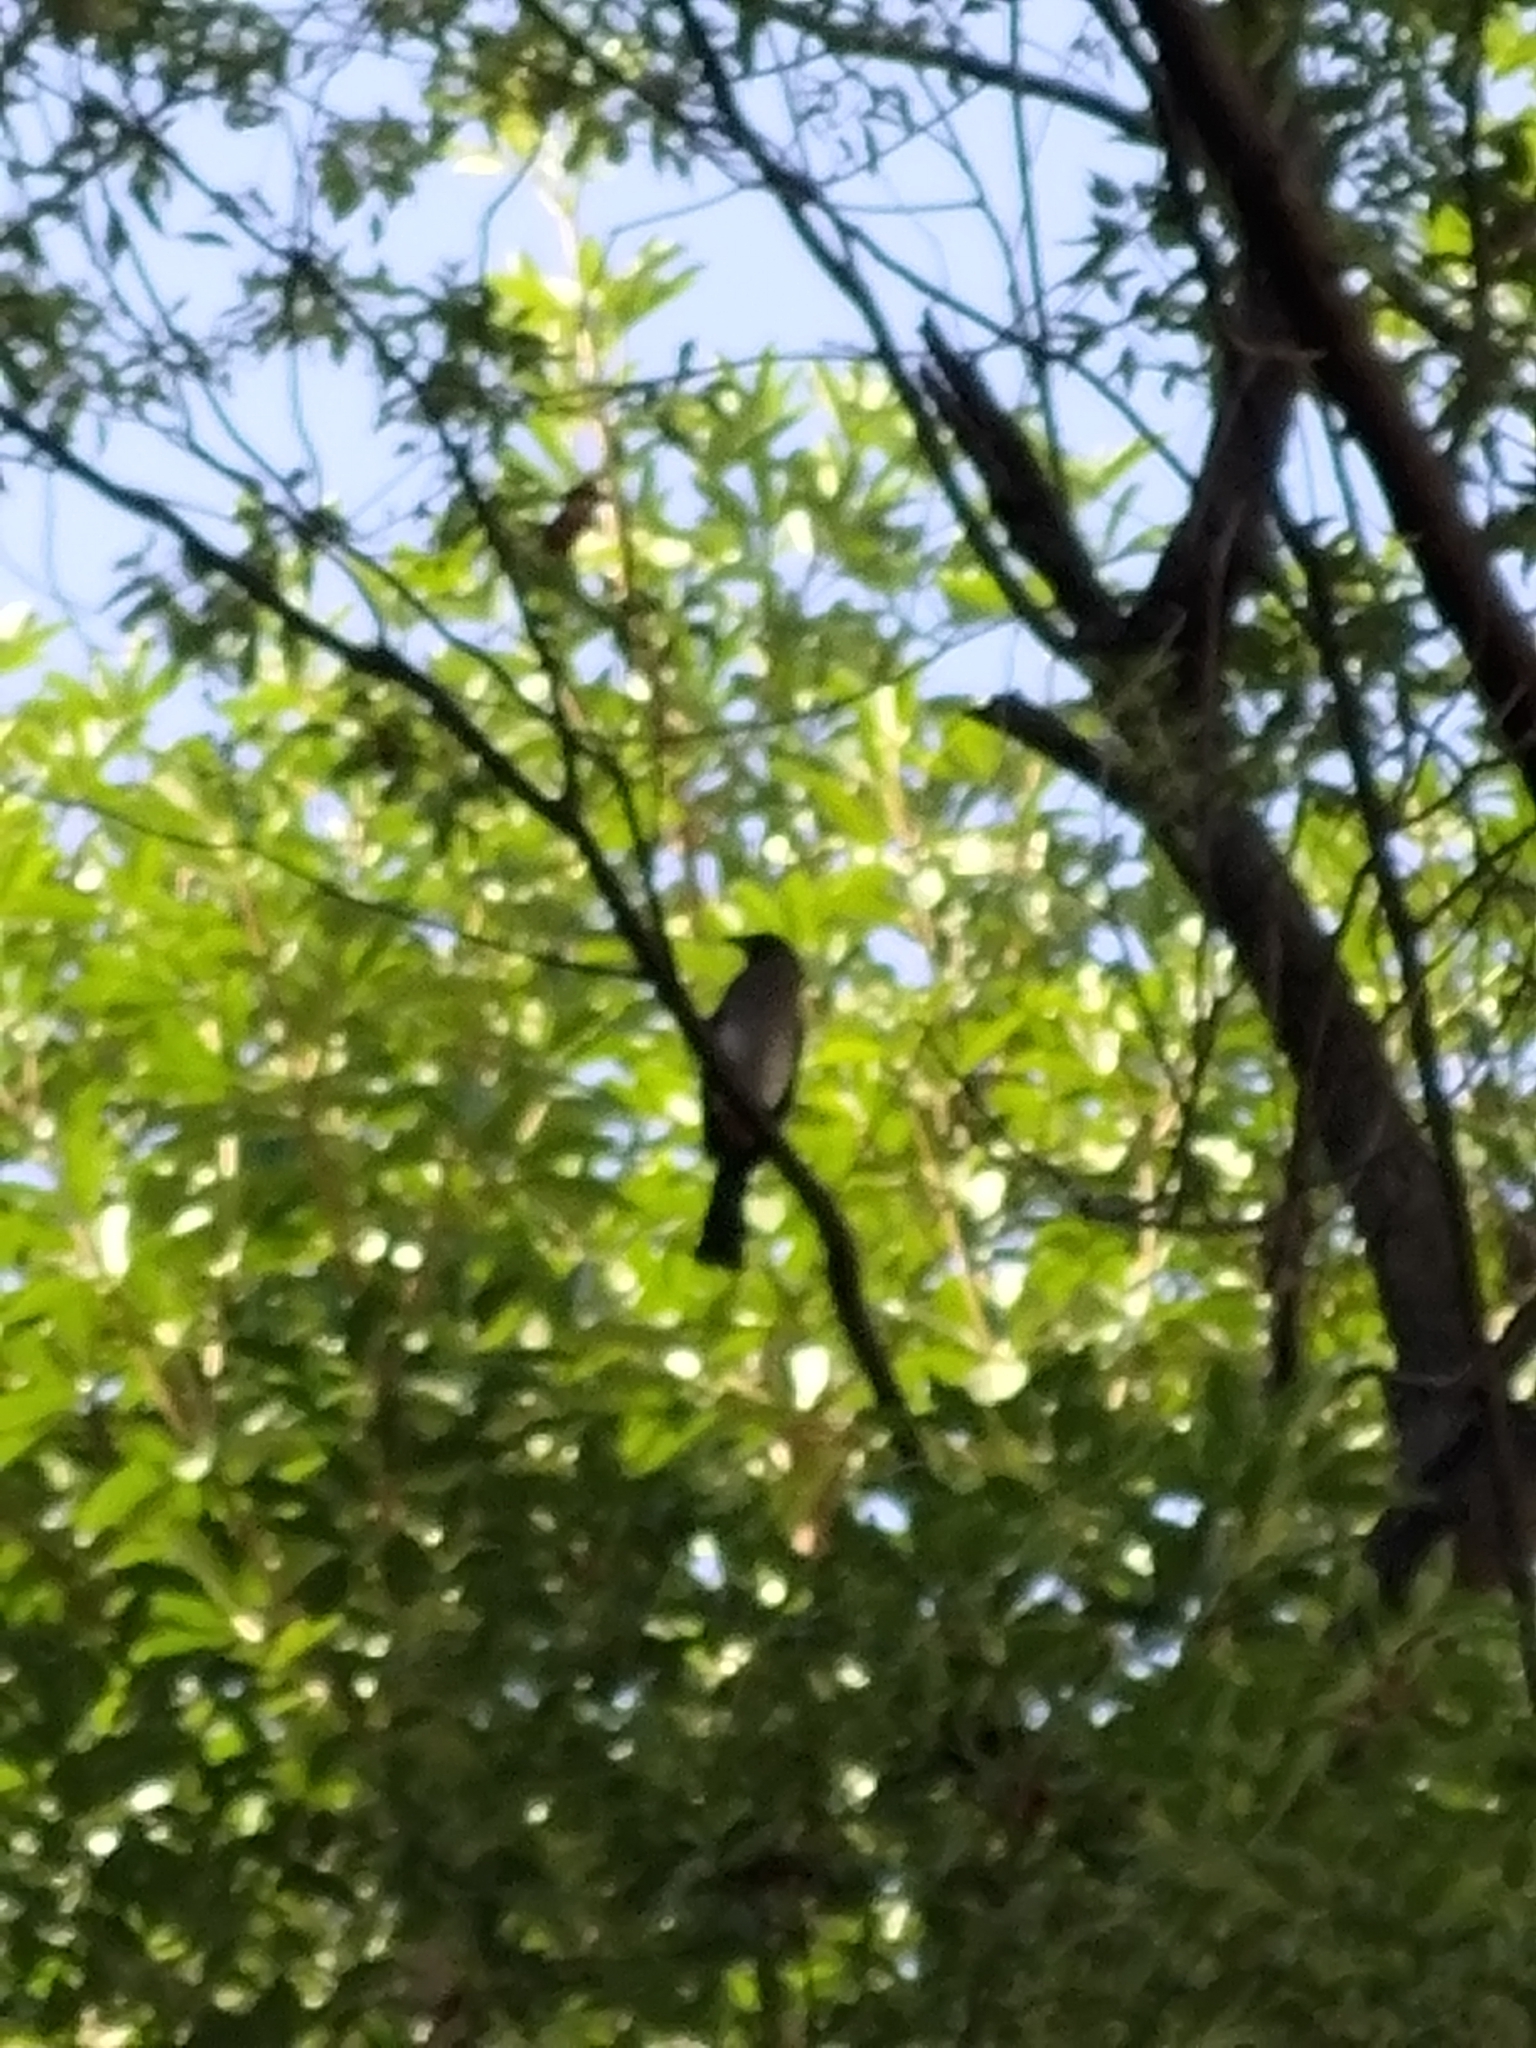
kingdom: Animalia
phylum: Chordata
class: Aves
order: Passeriformes
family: Corvidae
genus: Dendrocitta
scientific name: Dendrocitta formosae
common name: Grey treepie
